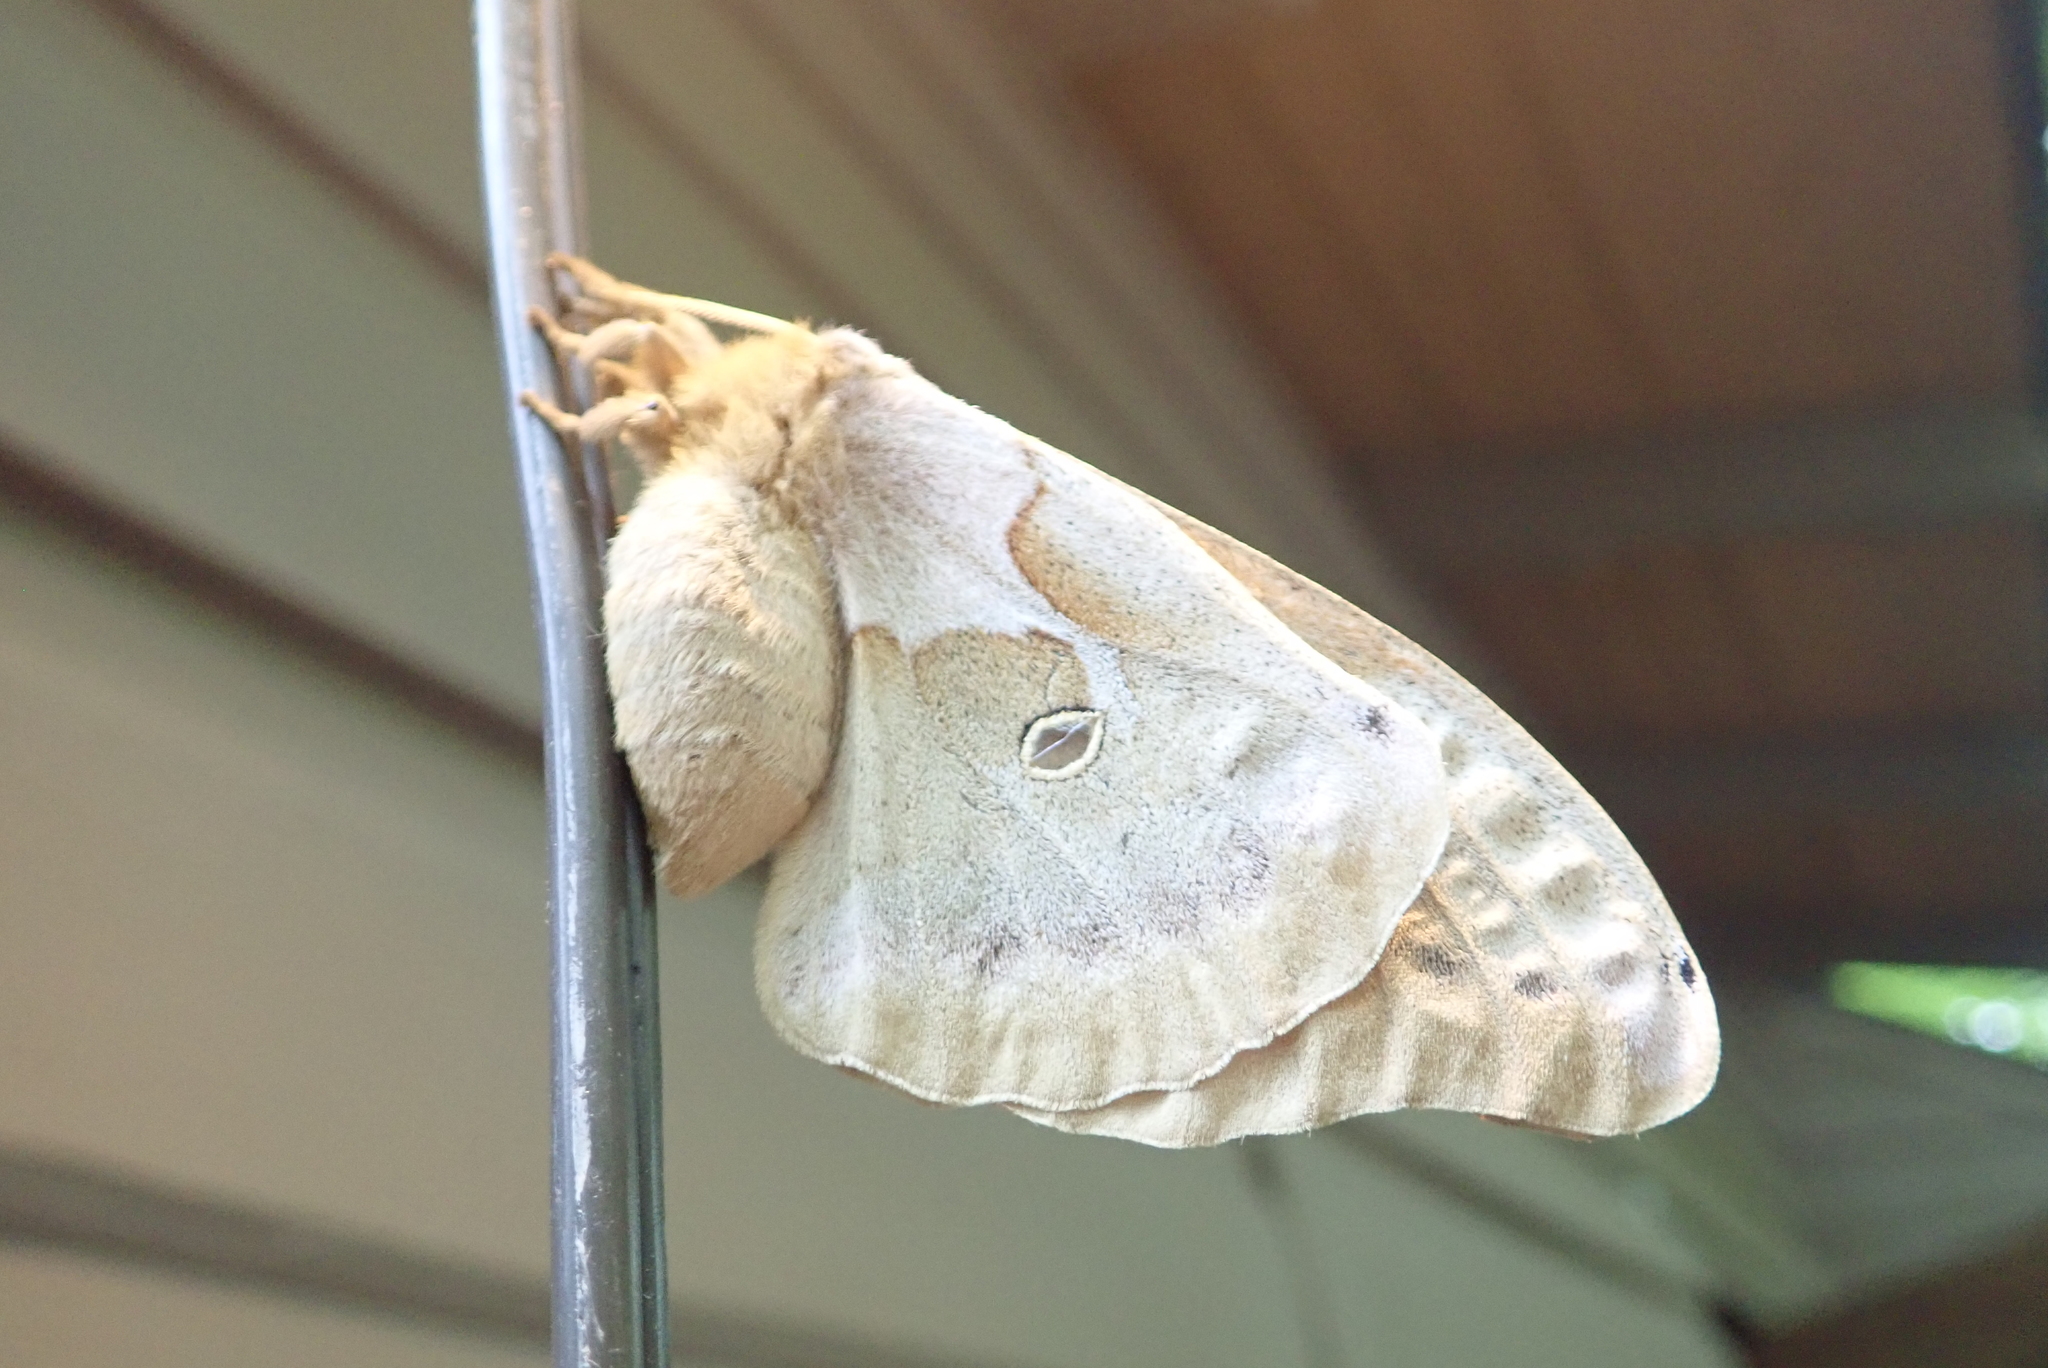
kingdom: Animalia
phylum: Arthropoda
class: Insecta
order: Lepidoptera
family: Saturniidae
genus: Antheraea
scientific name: Antheraea polyphemus
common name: Polyphemus moth
